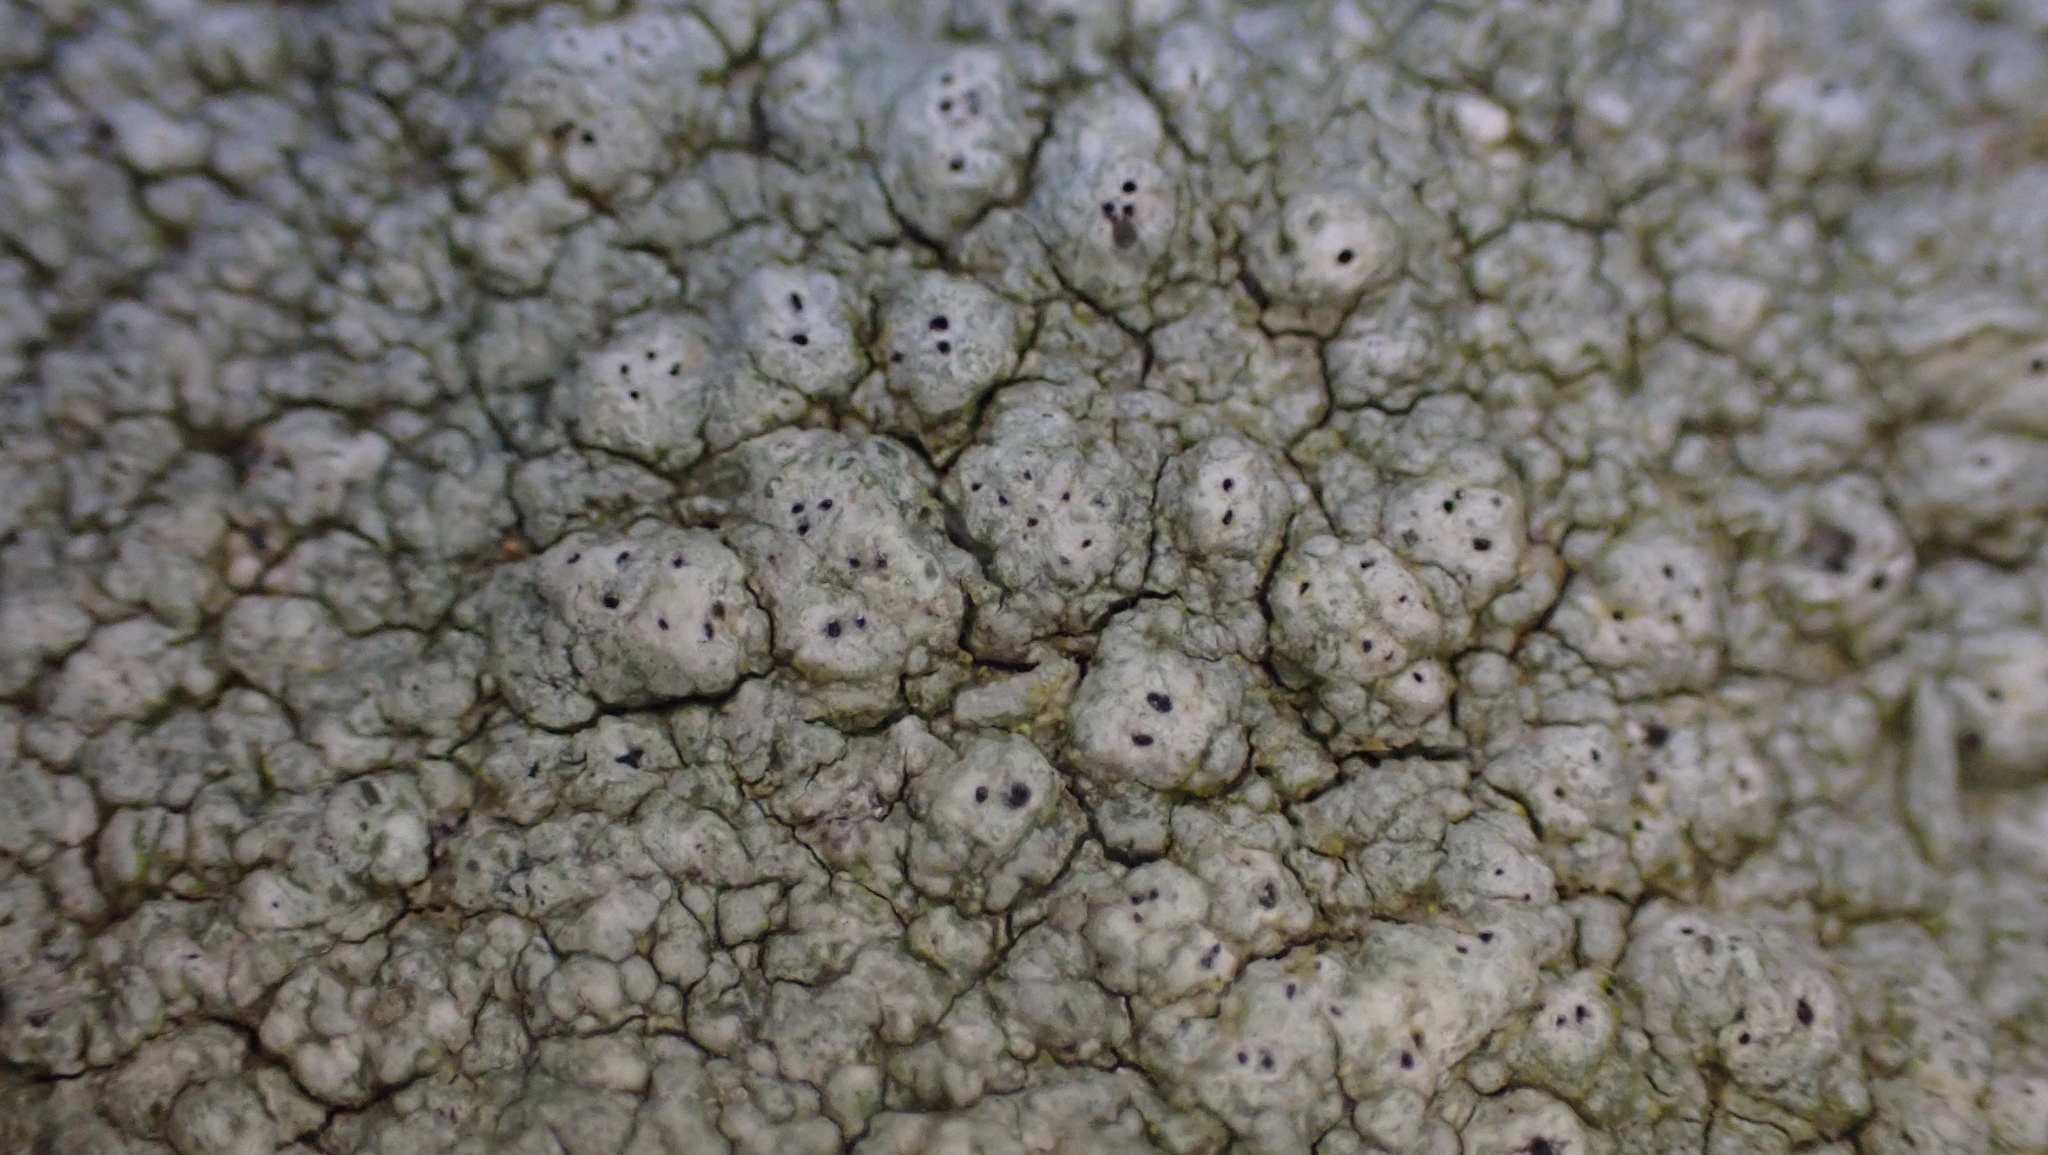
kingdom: Fungi
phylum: Ascomycota
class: Lecanoromycetes
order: Pertusariales
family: Pertusariaceae
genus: Pertusaria
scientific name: Pertusaria plittiana
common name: Rock wart lichen
